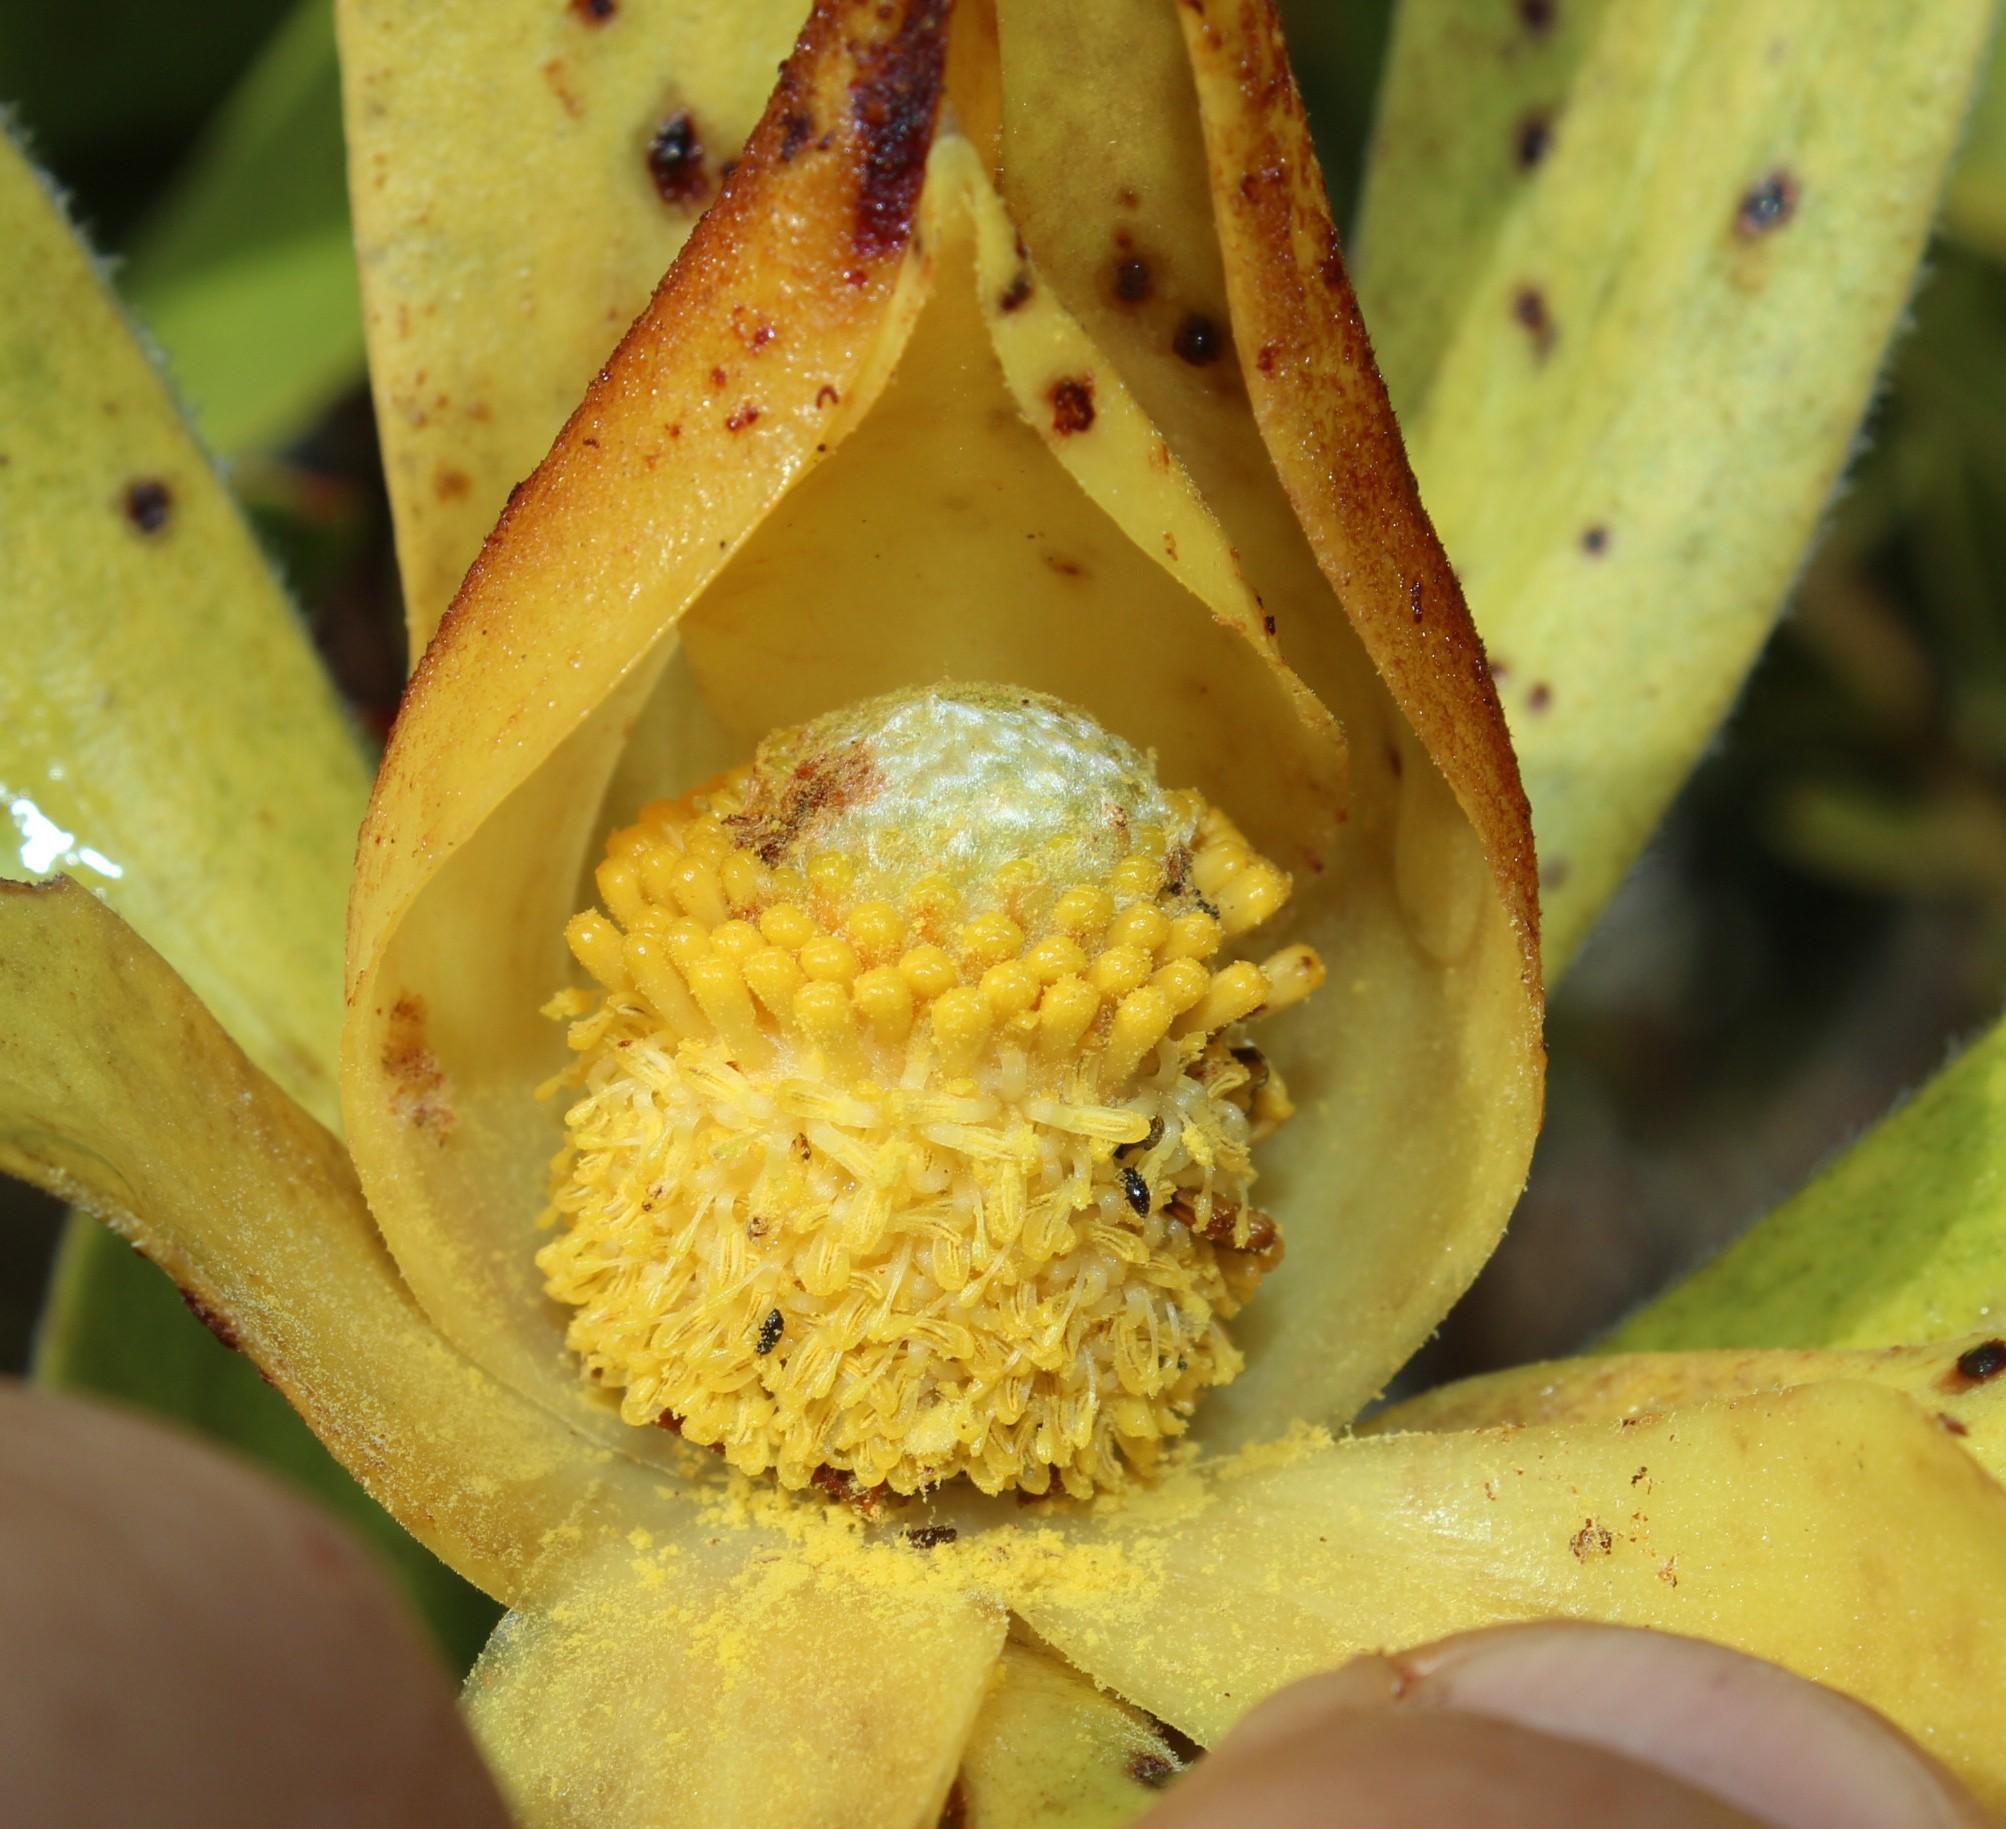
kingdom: Plantae
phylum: Tracheophyta
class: Magnoliopsida
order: Proteales
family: Proteaceae
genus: Leucadendron
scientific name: Leucadendron laureolum
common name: Golden sunshinebush
